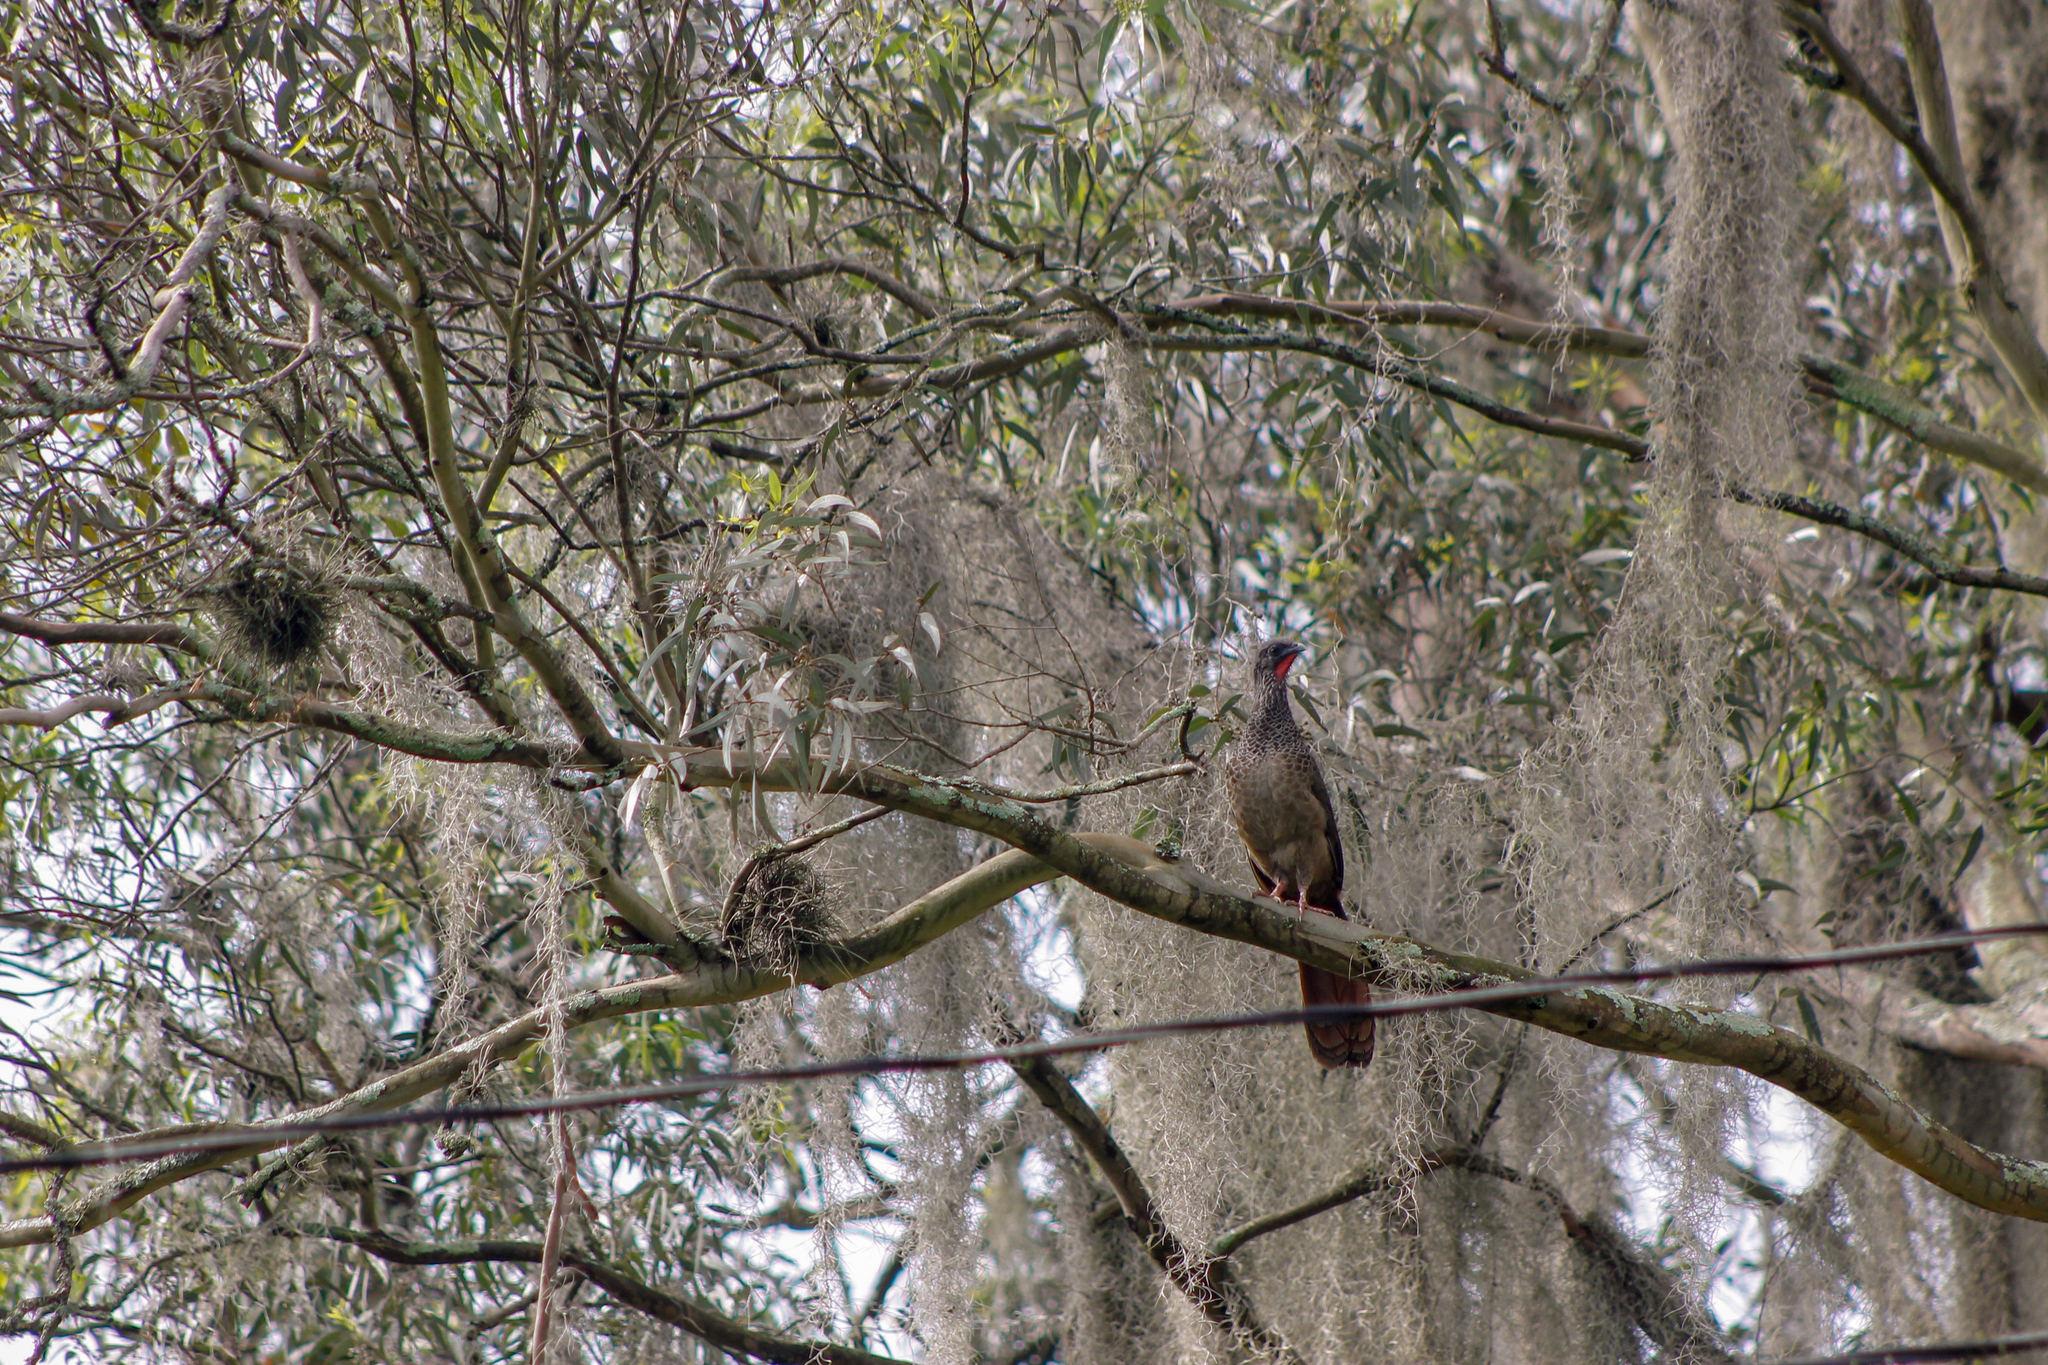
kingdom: Animalia
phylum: Chordata
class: Aves
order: Galliformes
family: Cracidae
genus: Ortalis
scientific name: Ortalis columbiana
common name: Colombian chachalaca
